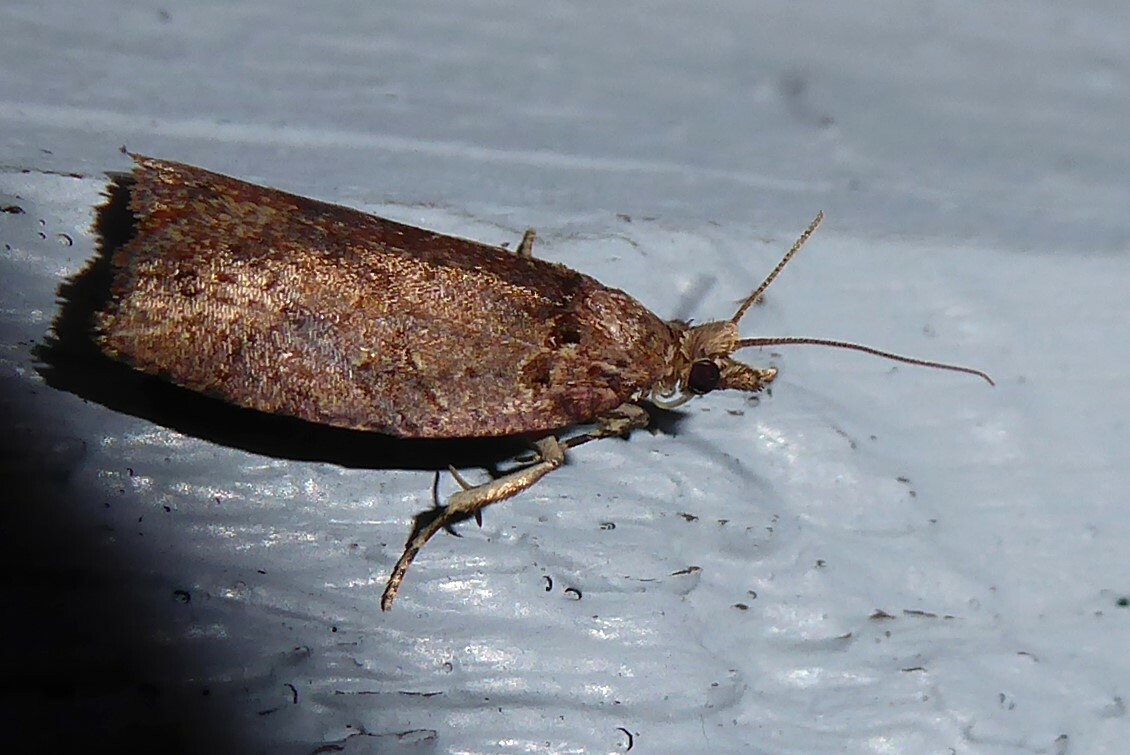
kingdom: Animalia
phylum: Arthropoda
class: Insecta
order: Lepidoptera
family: Tortricidae
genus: Ctenopseustis
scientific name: Ctenopseustis obliquana
